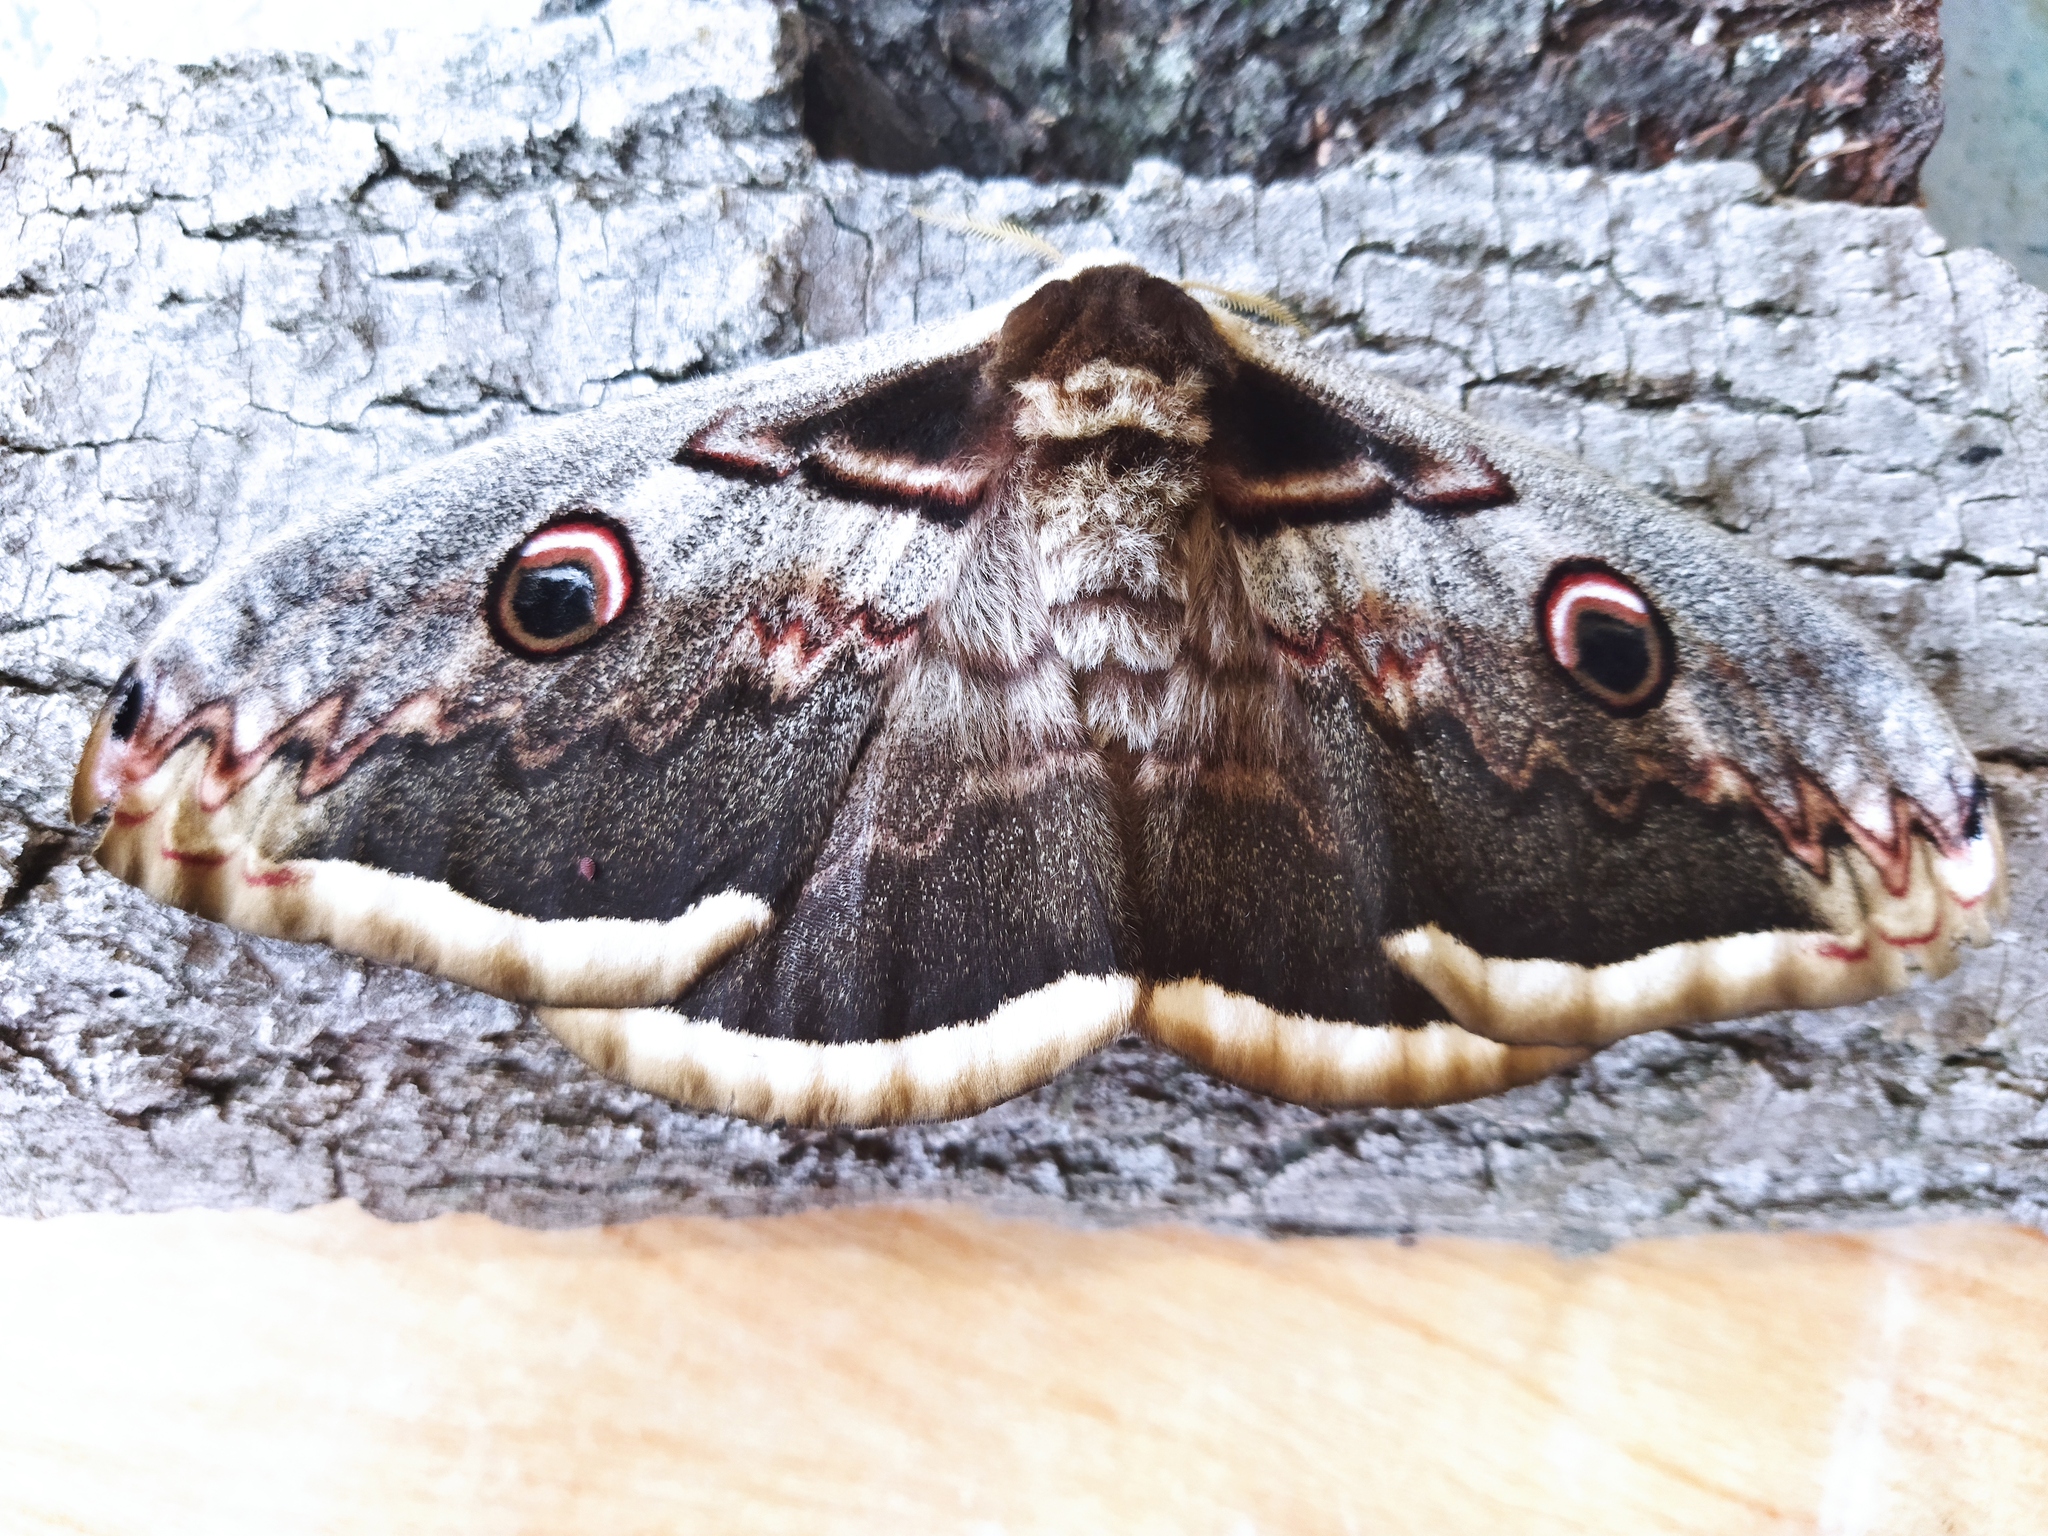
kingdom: Animalia
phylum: Arthropoda
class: Insecta
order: Lepidoptera
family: Saturniidae
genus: Saturnia
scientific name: Saturnia pyri
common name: Great peacock moth
